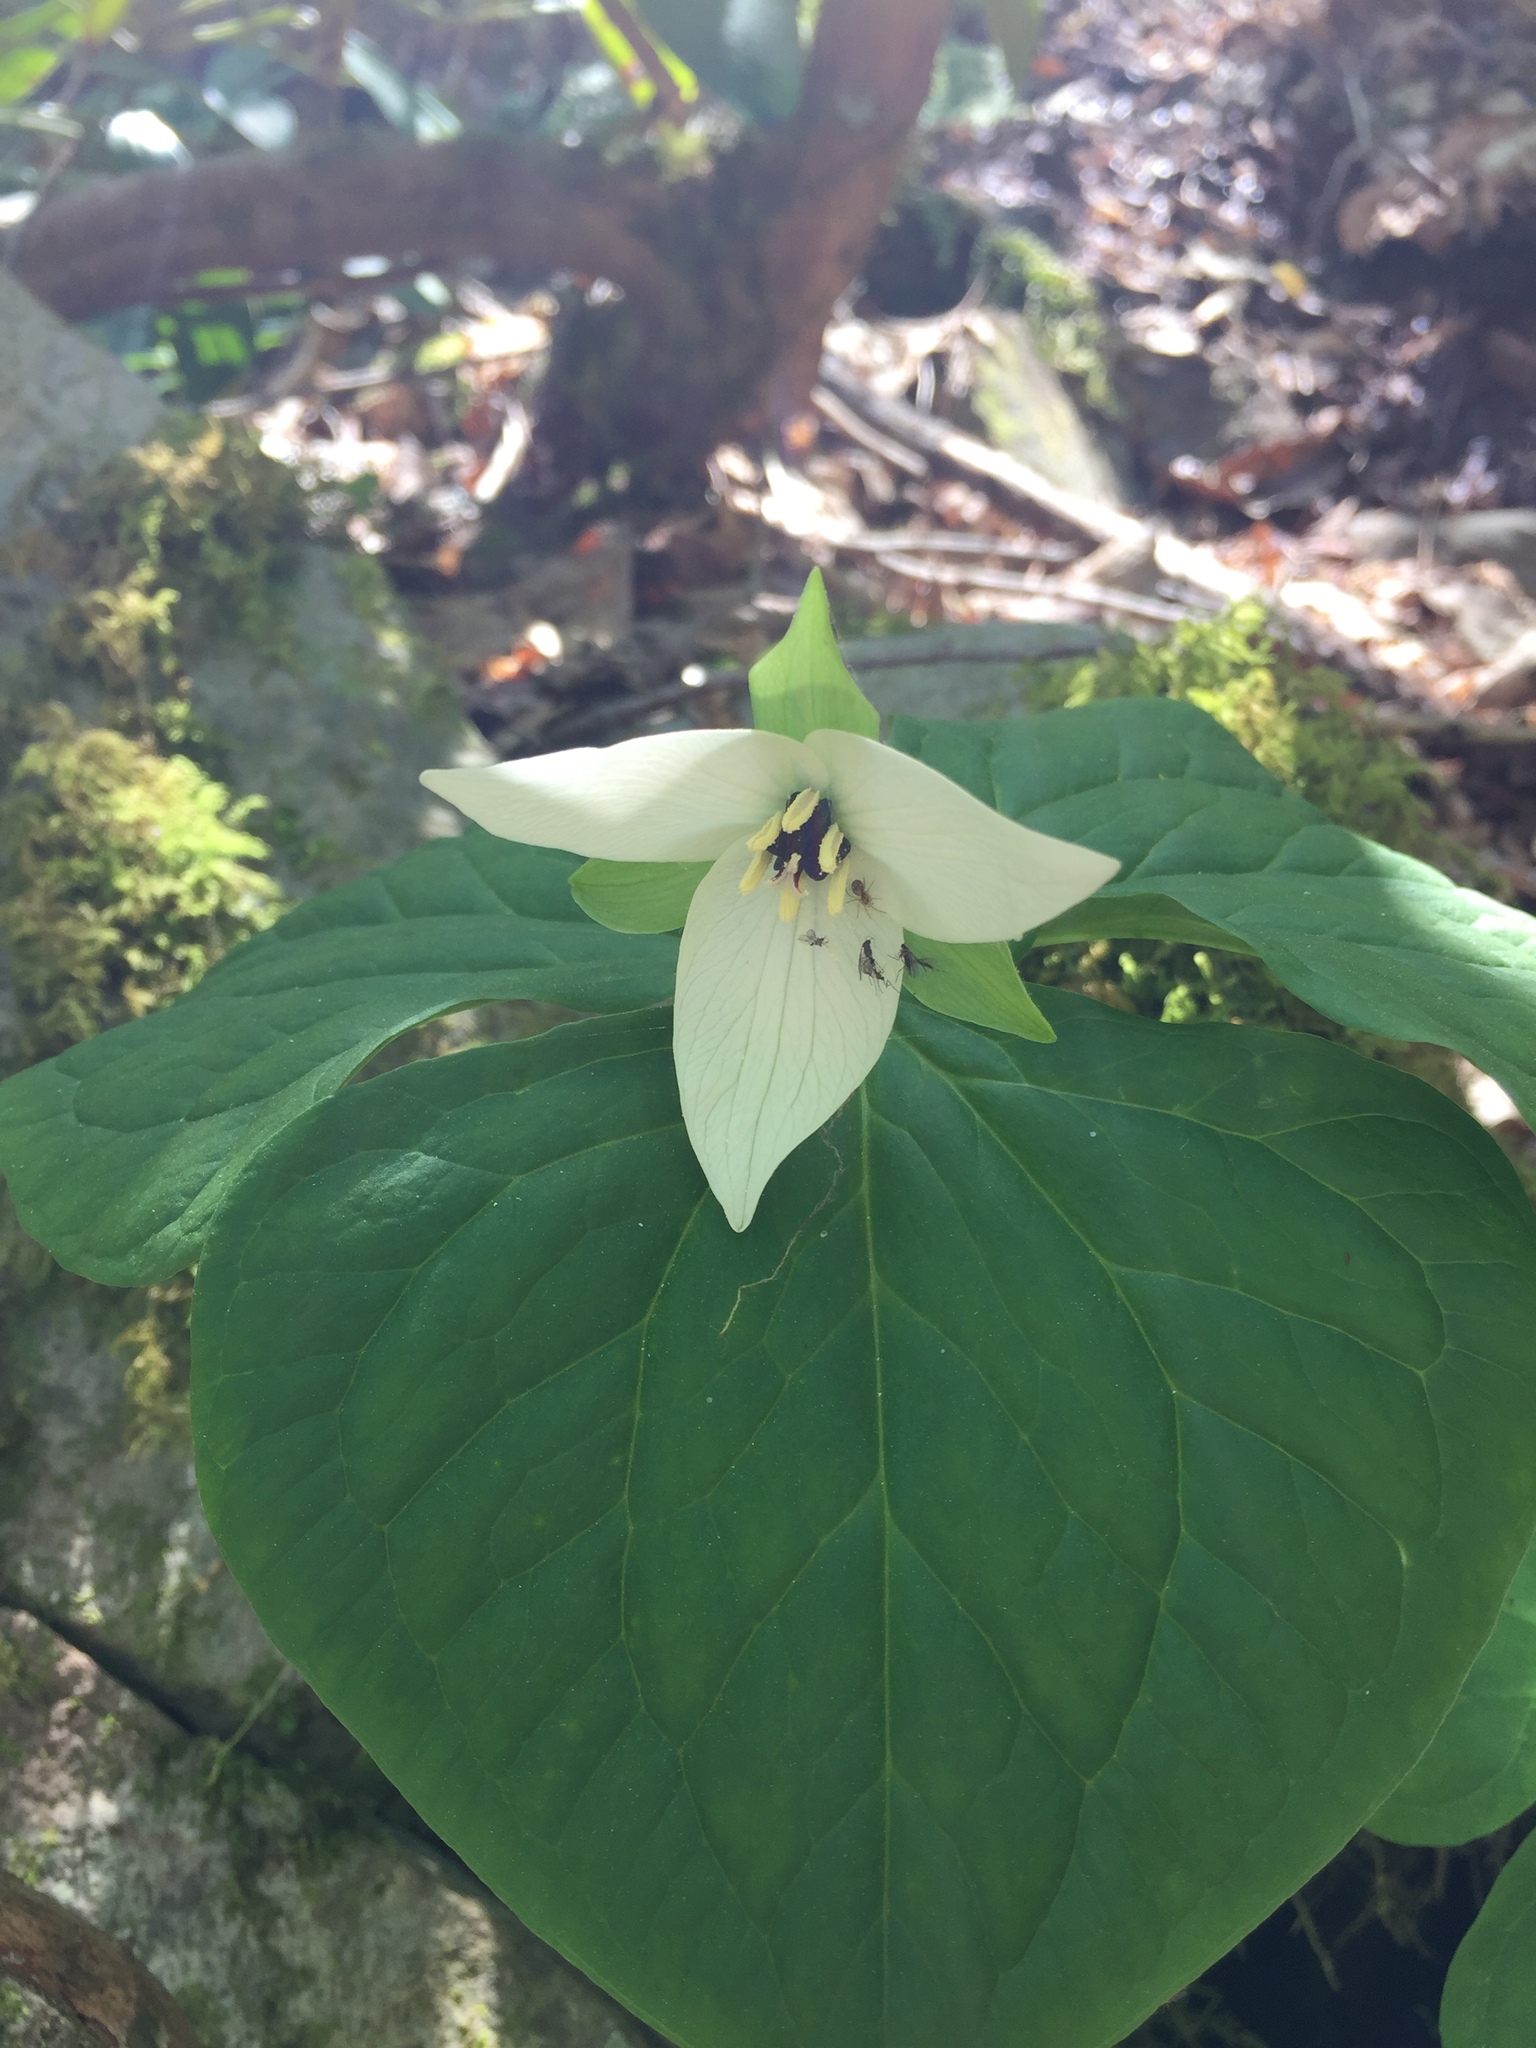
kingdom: Plantae
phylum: Tracheophyta
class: Liliopsida
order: Liliales
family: Melanthiaceae
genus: Trillium
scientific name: Trillium erectum
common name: Purple trillium
